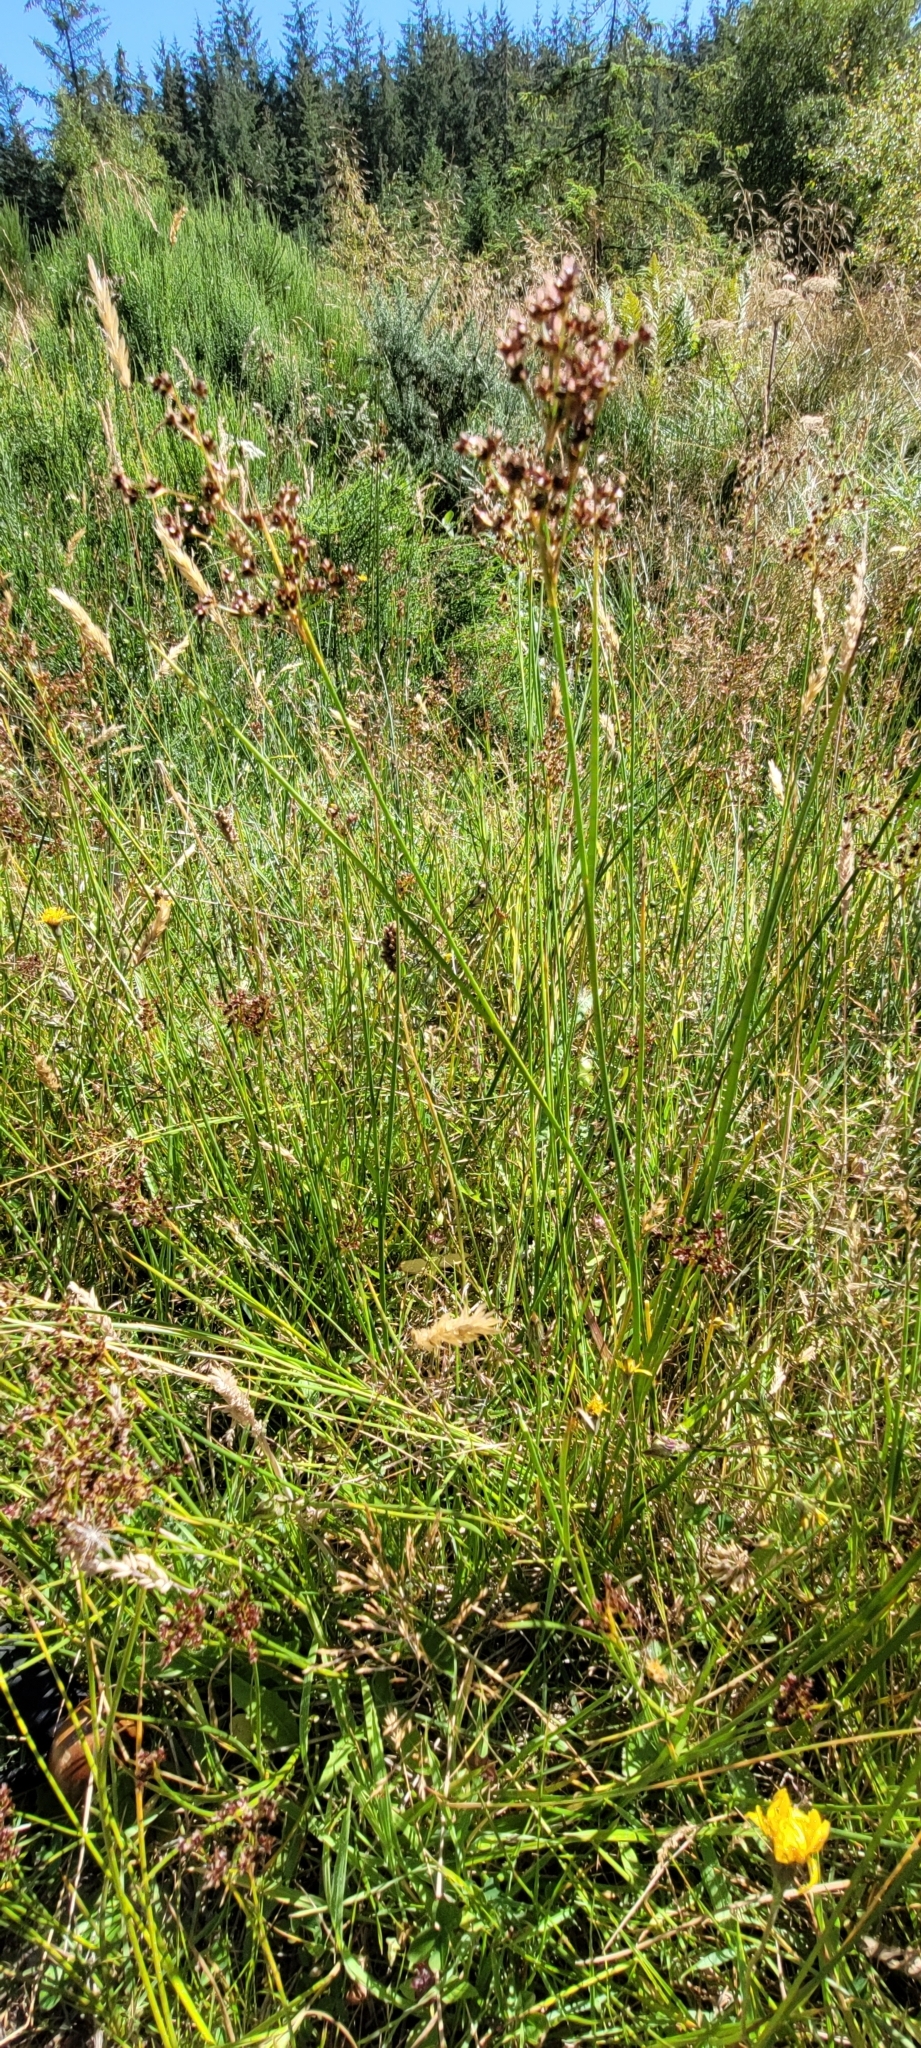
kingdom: Plantae
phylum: Tracheophyta
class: Liliopsida
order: Poales
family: Juncaceae
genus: Juncus
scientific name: Juncus acutiflorus
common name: Sharp-flowered rush
